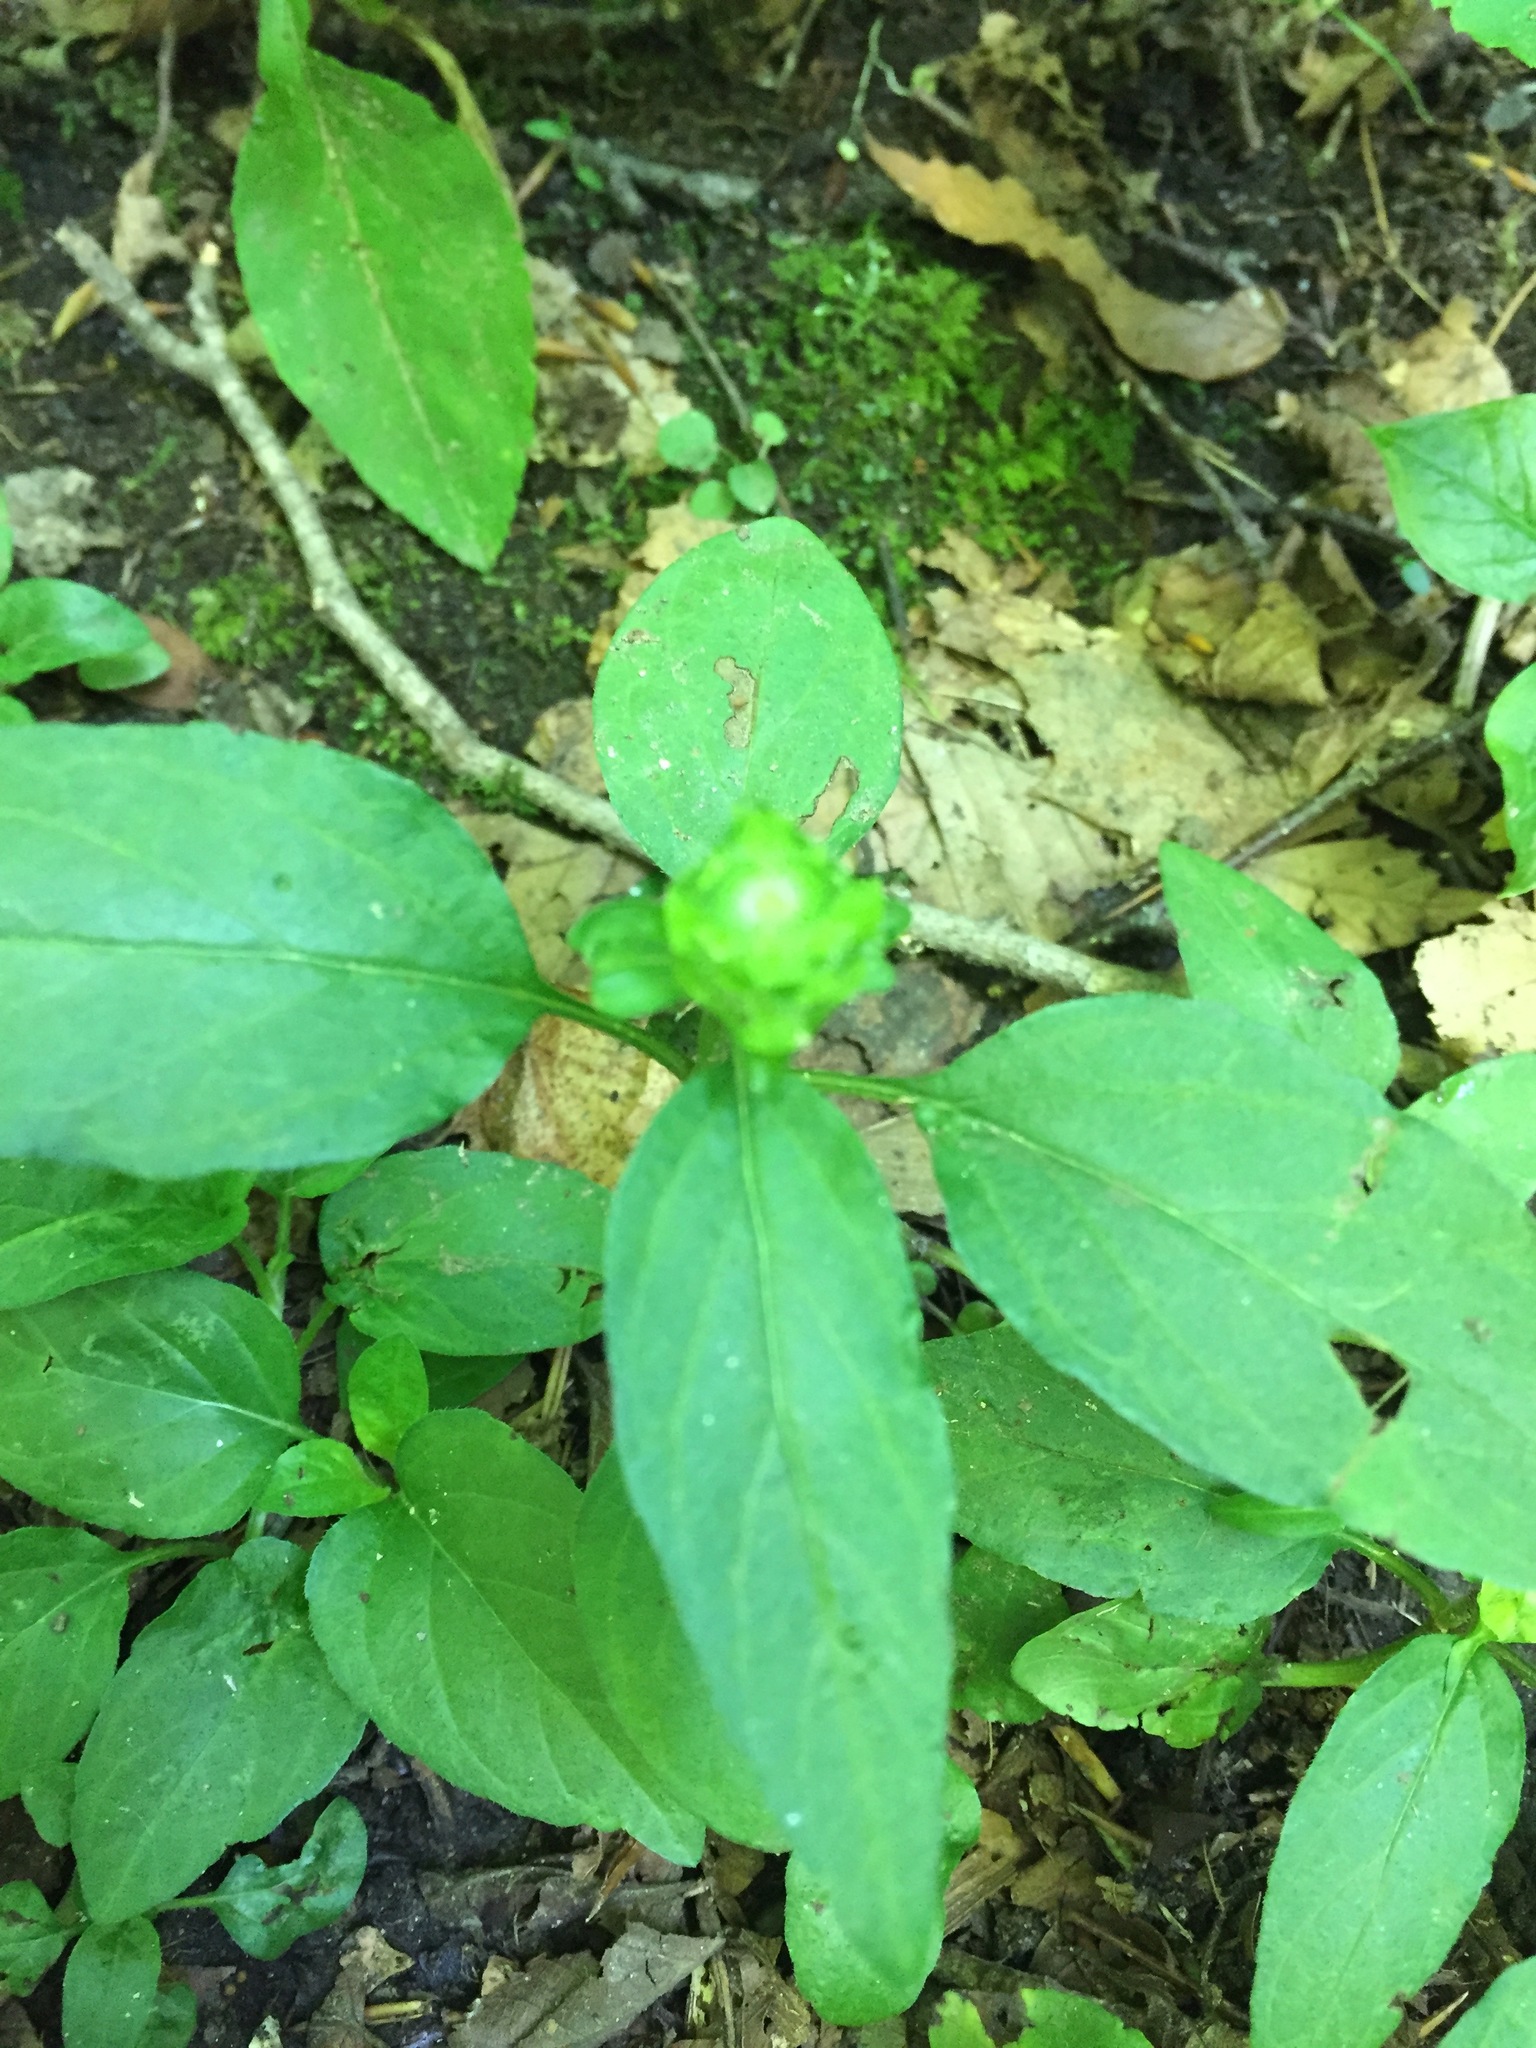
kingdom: Plantae
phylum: Tracheophyta
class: Magnoliopsida
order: Lamiales
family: Lamiaceae
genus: Prunella
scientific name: Prunella vulgaris
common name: Heal-all
